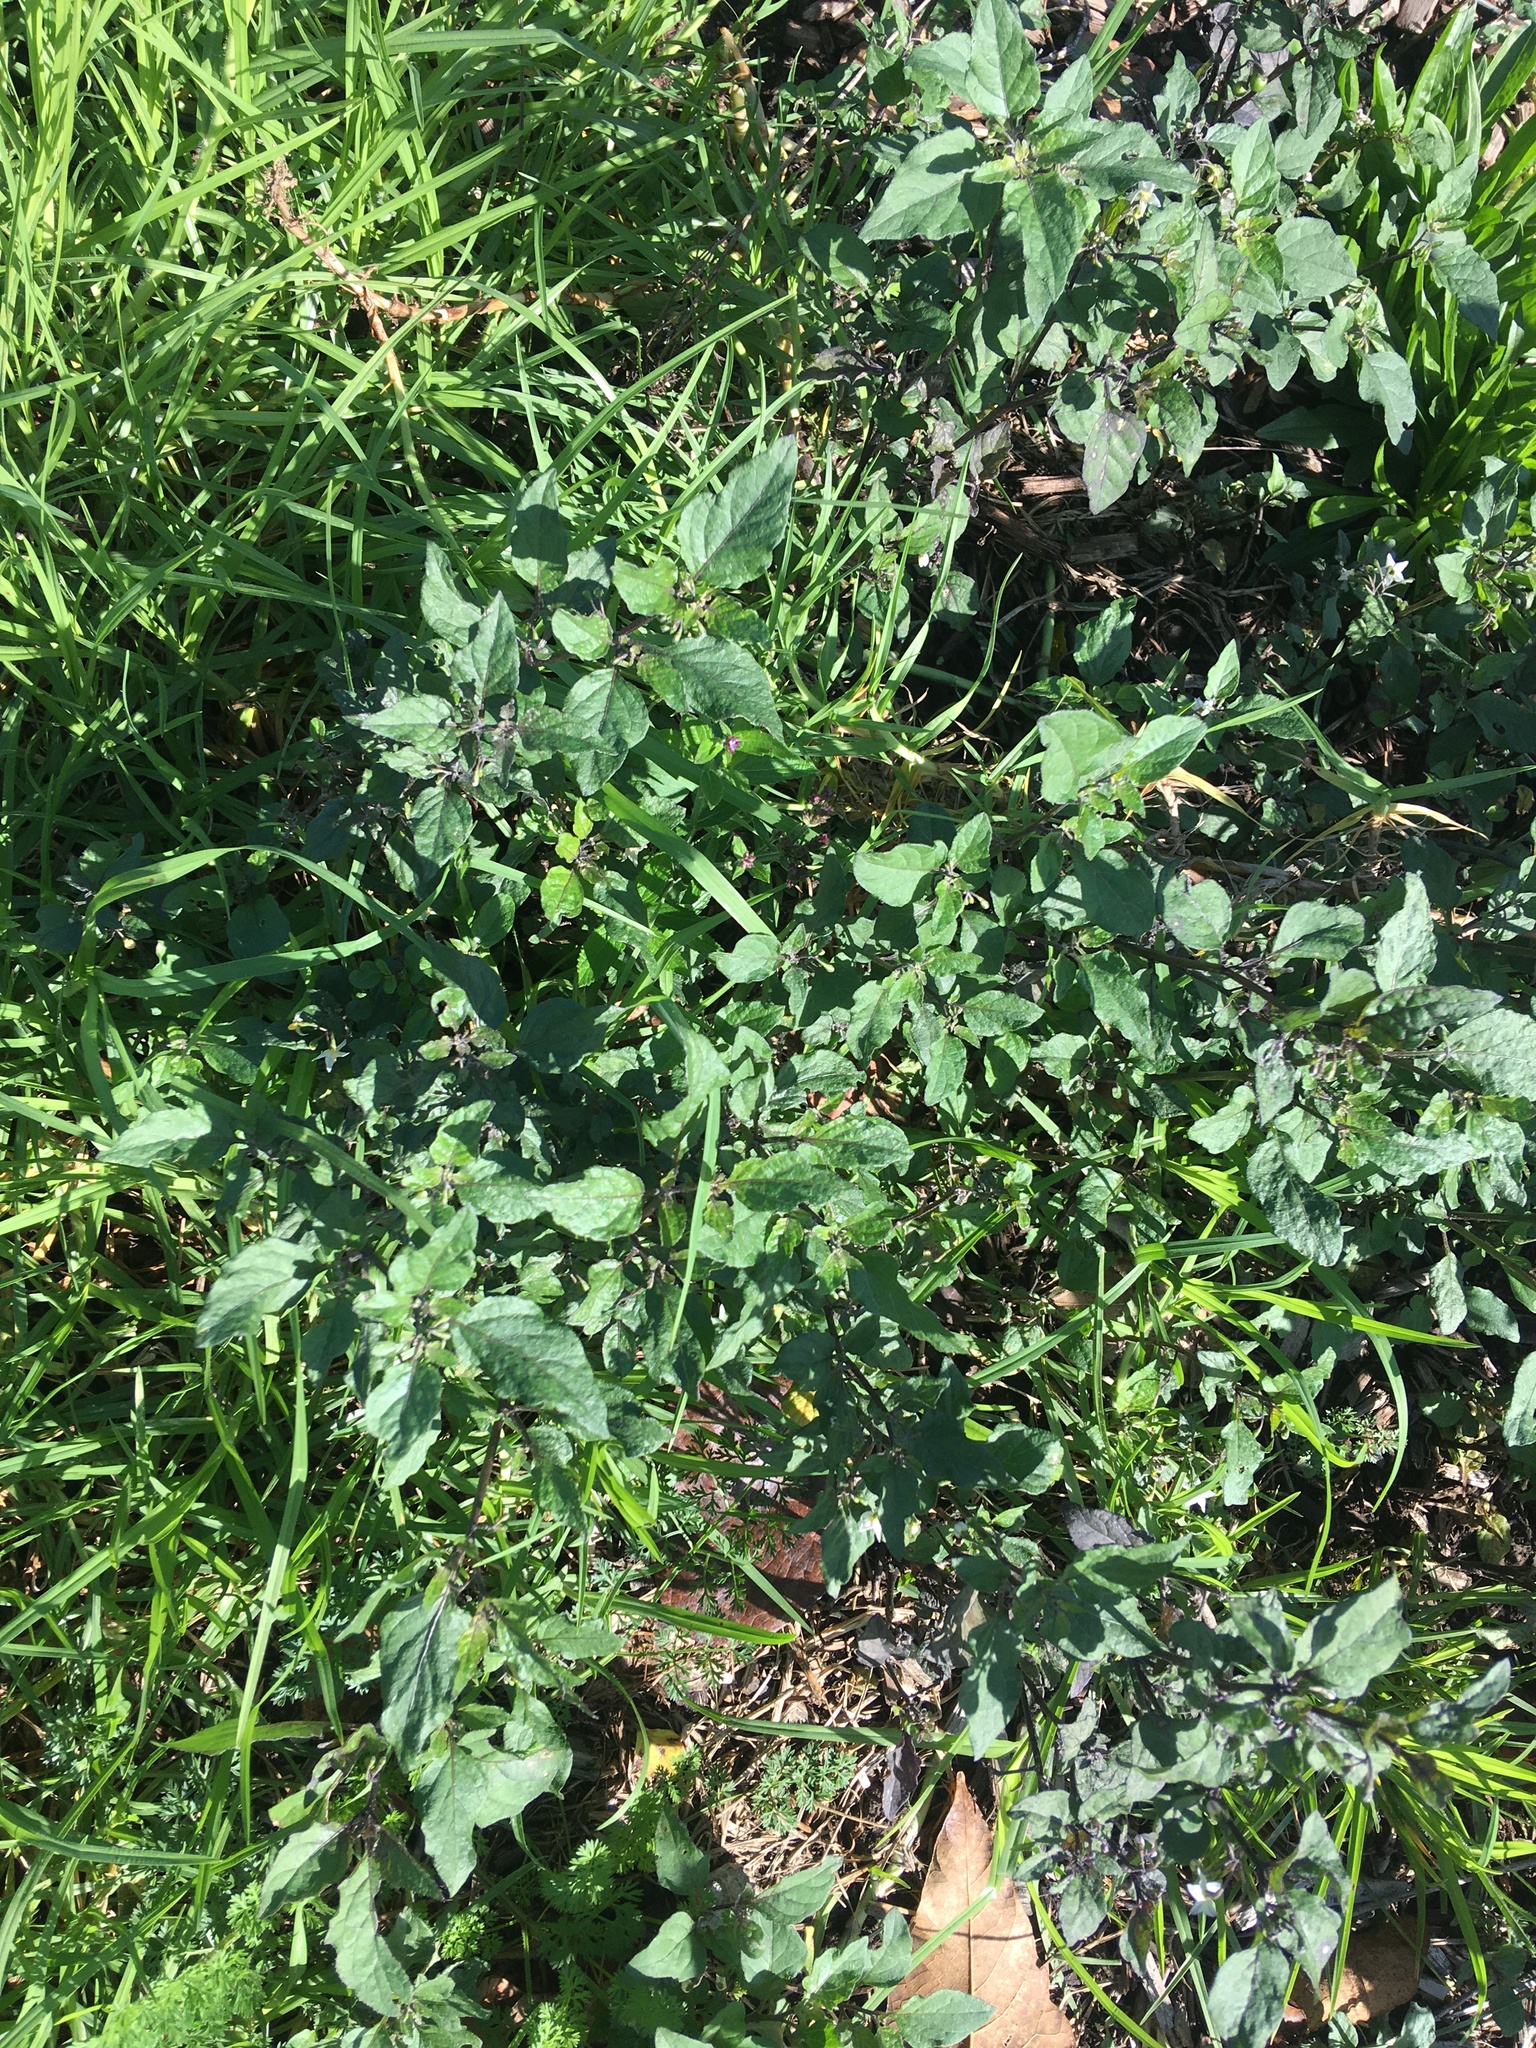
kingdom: Plantae
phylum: Tracheophyta
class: Magnoliopsida
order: Solanales
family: Solanaceae
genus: Solanum
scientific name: Solanum nigrum
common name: Black nightshade
